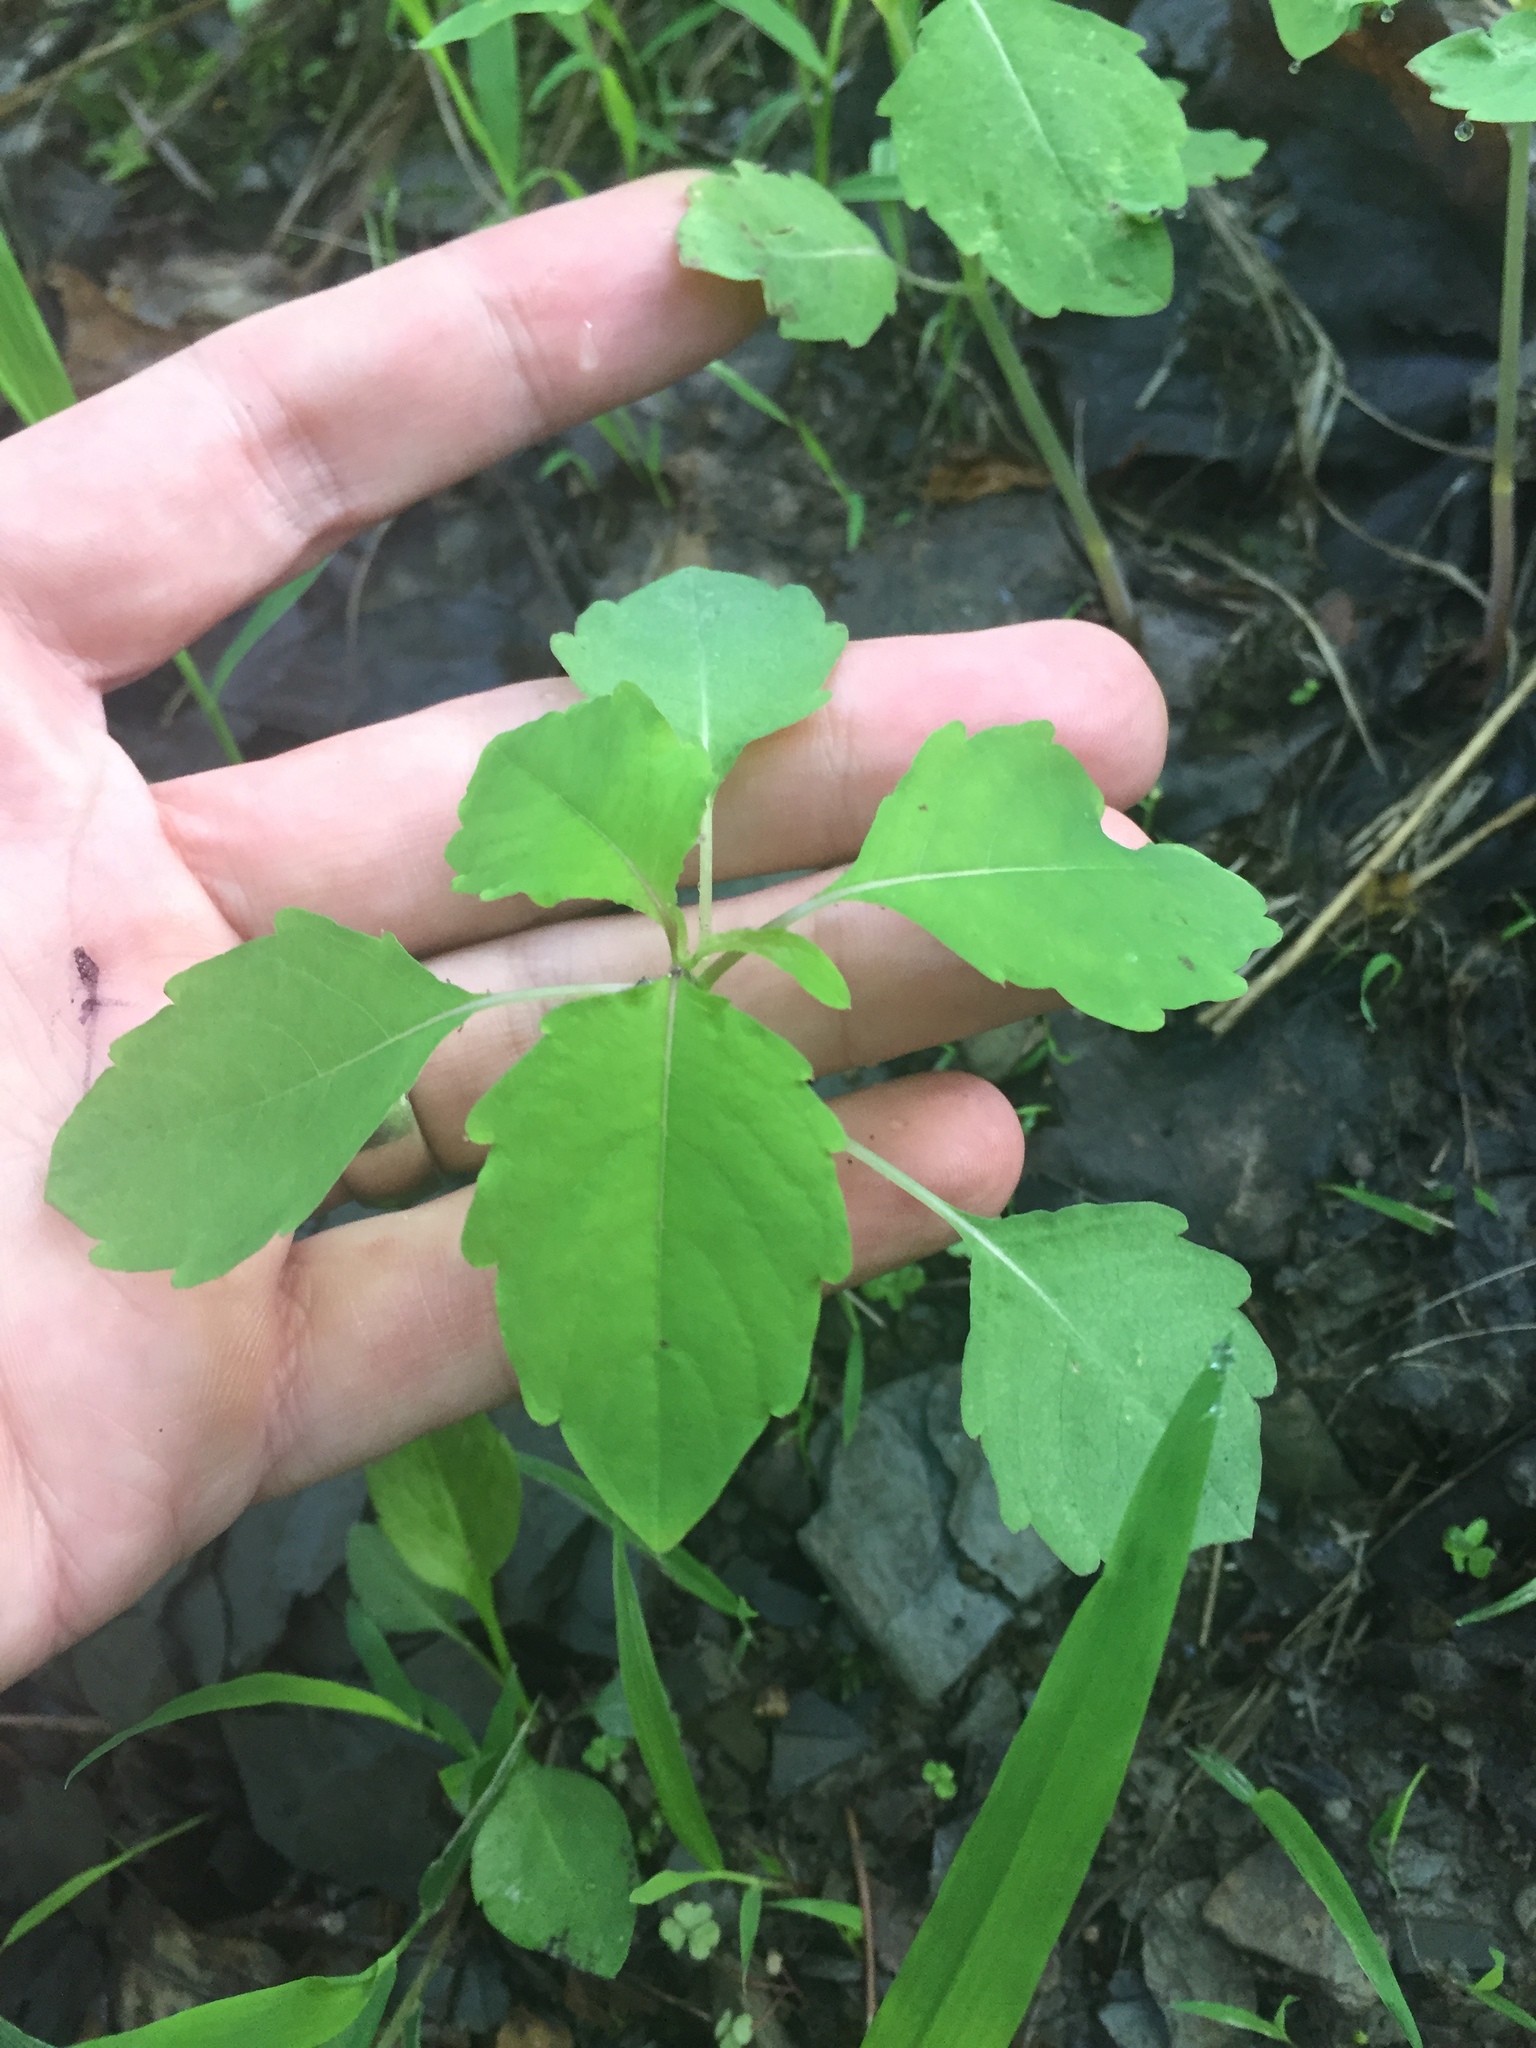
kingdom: Plantae
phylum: Tracheophyta
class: Magnoliopsida
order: Ericales
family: Balsaminaceae
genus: Impatiens
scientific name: Impatiens
